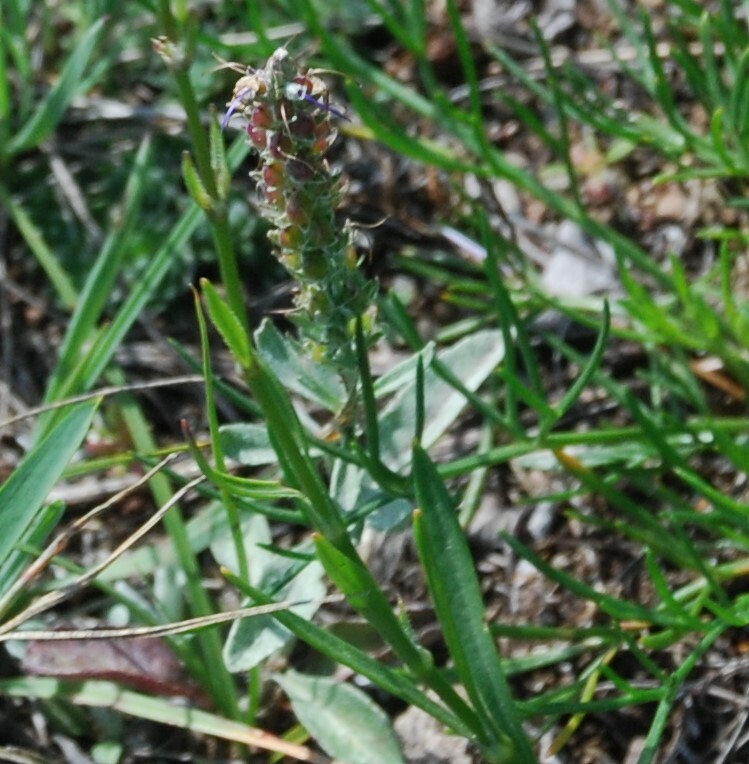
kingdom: Plantae
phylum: Tracheophyta
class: Magnoliopsida
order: Lamiales
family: Plantaginaceae
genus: Veronica
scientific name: Veronica incana
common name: Silver speedwell
